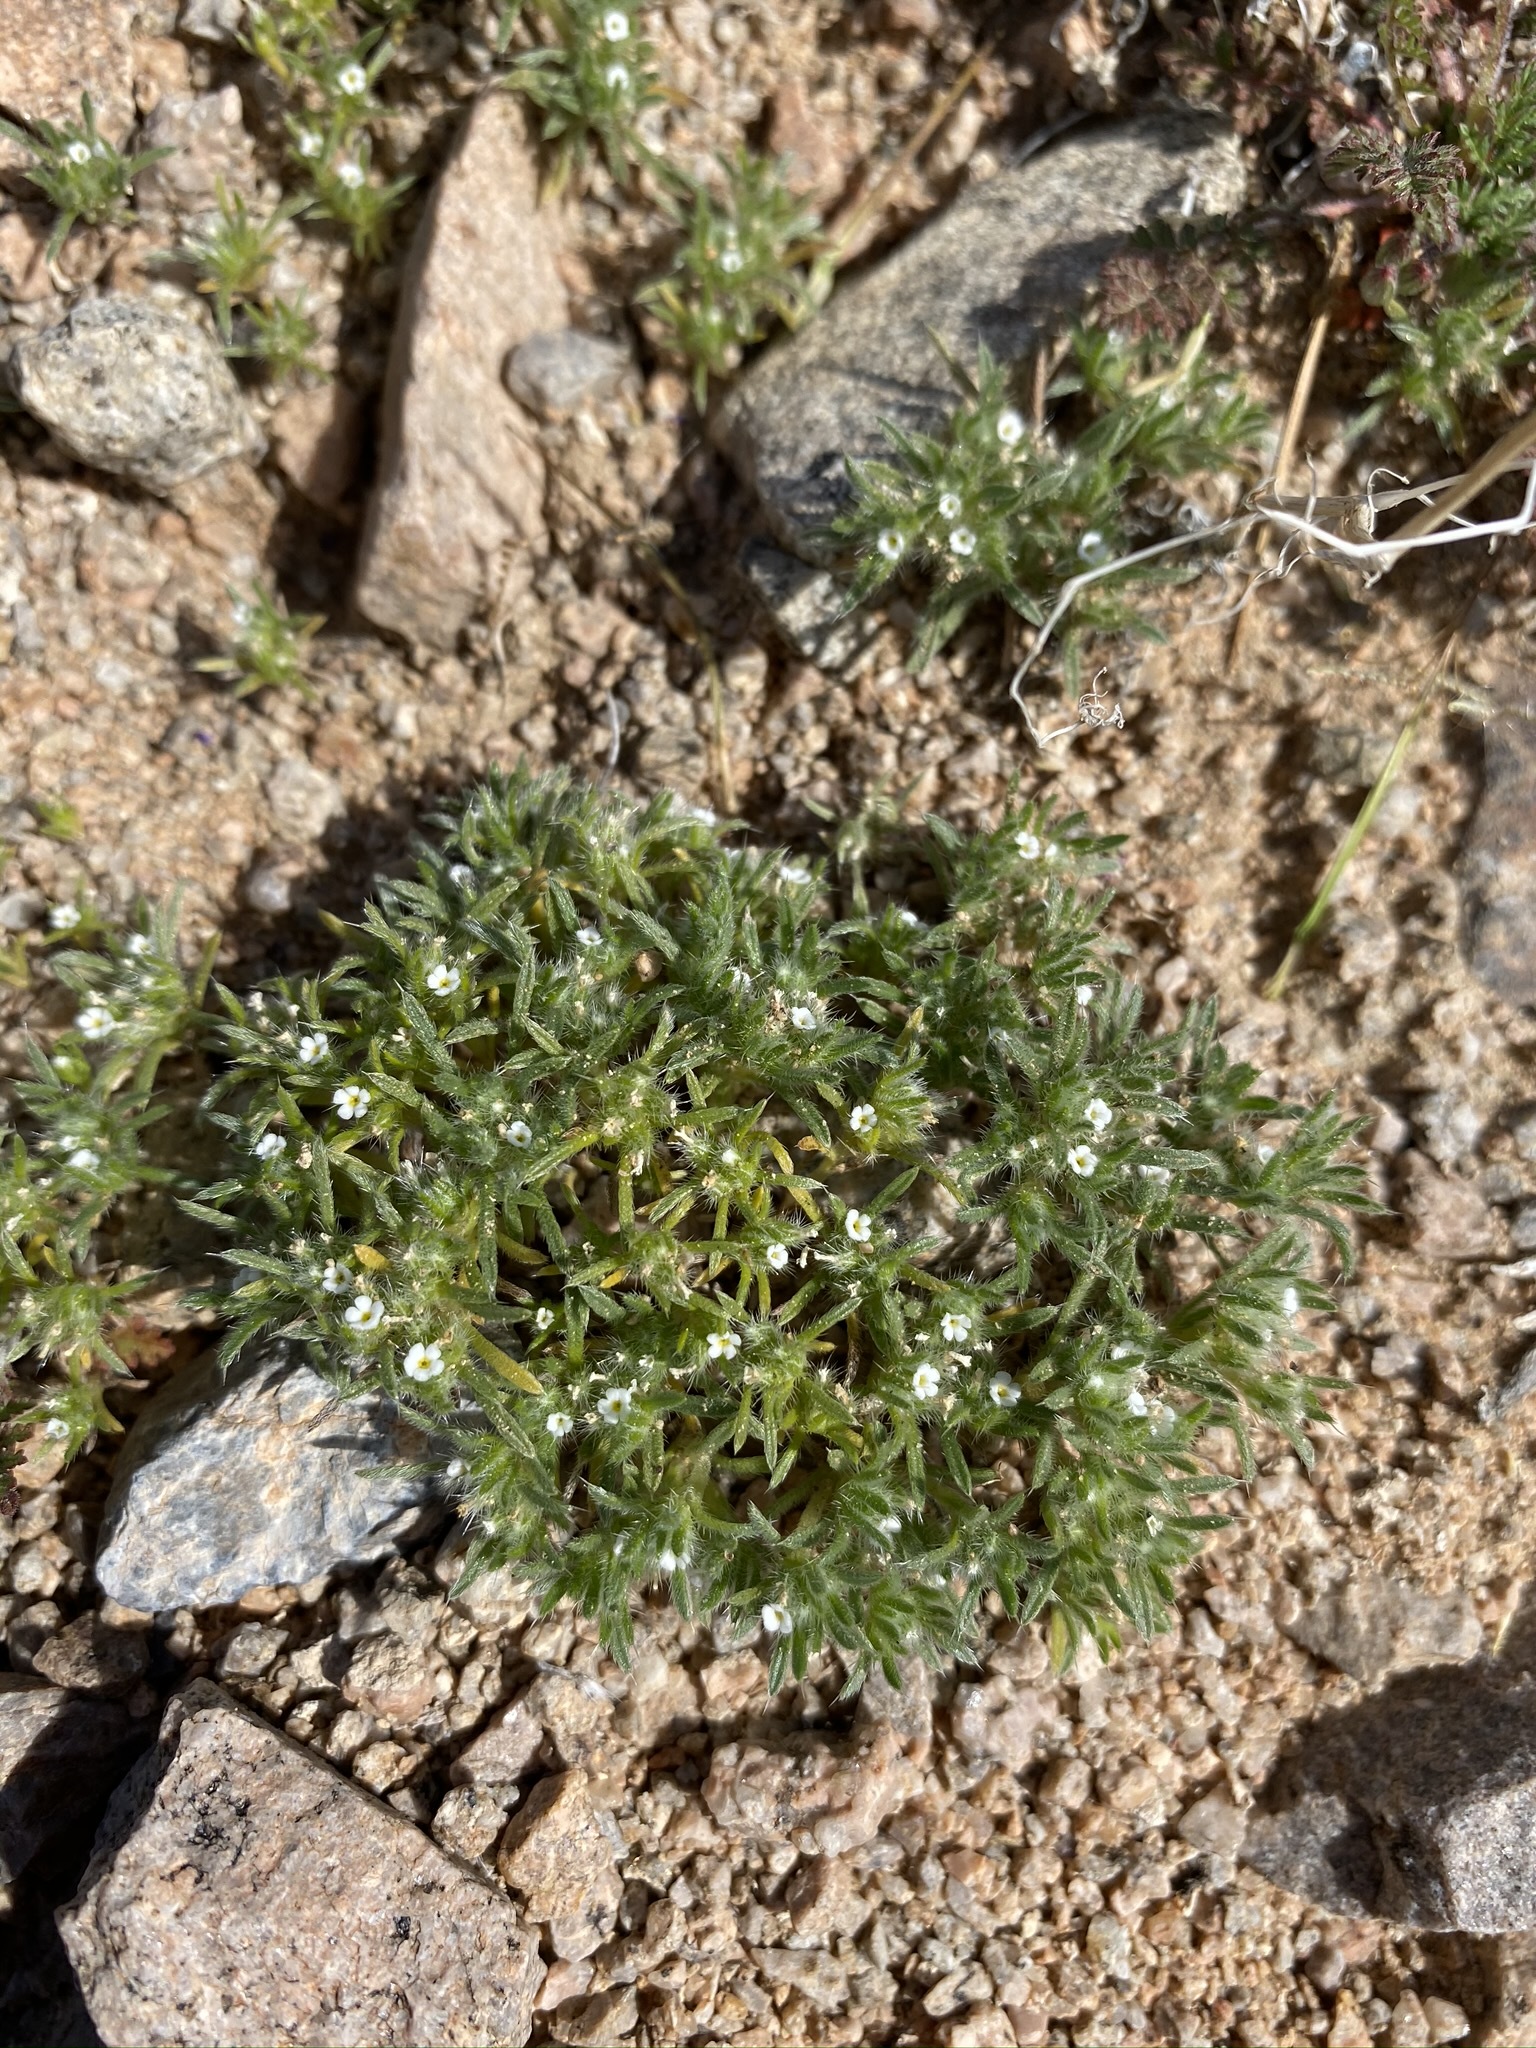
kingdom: Plantae
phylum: Tracheophyta
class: Magnoliopsida
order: Boraginales
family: Boraginaceae
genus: Greeneocharis
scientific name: Greeneocharis circumscissa
